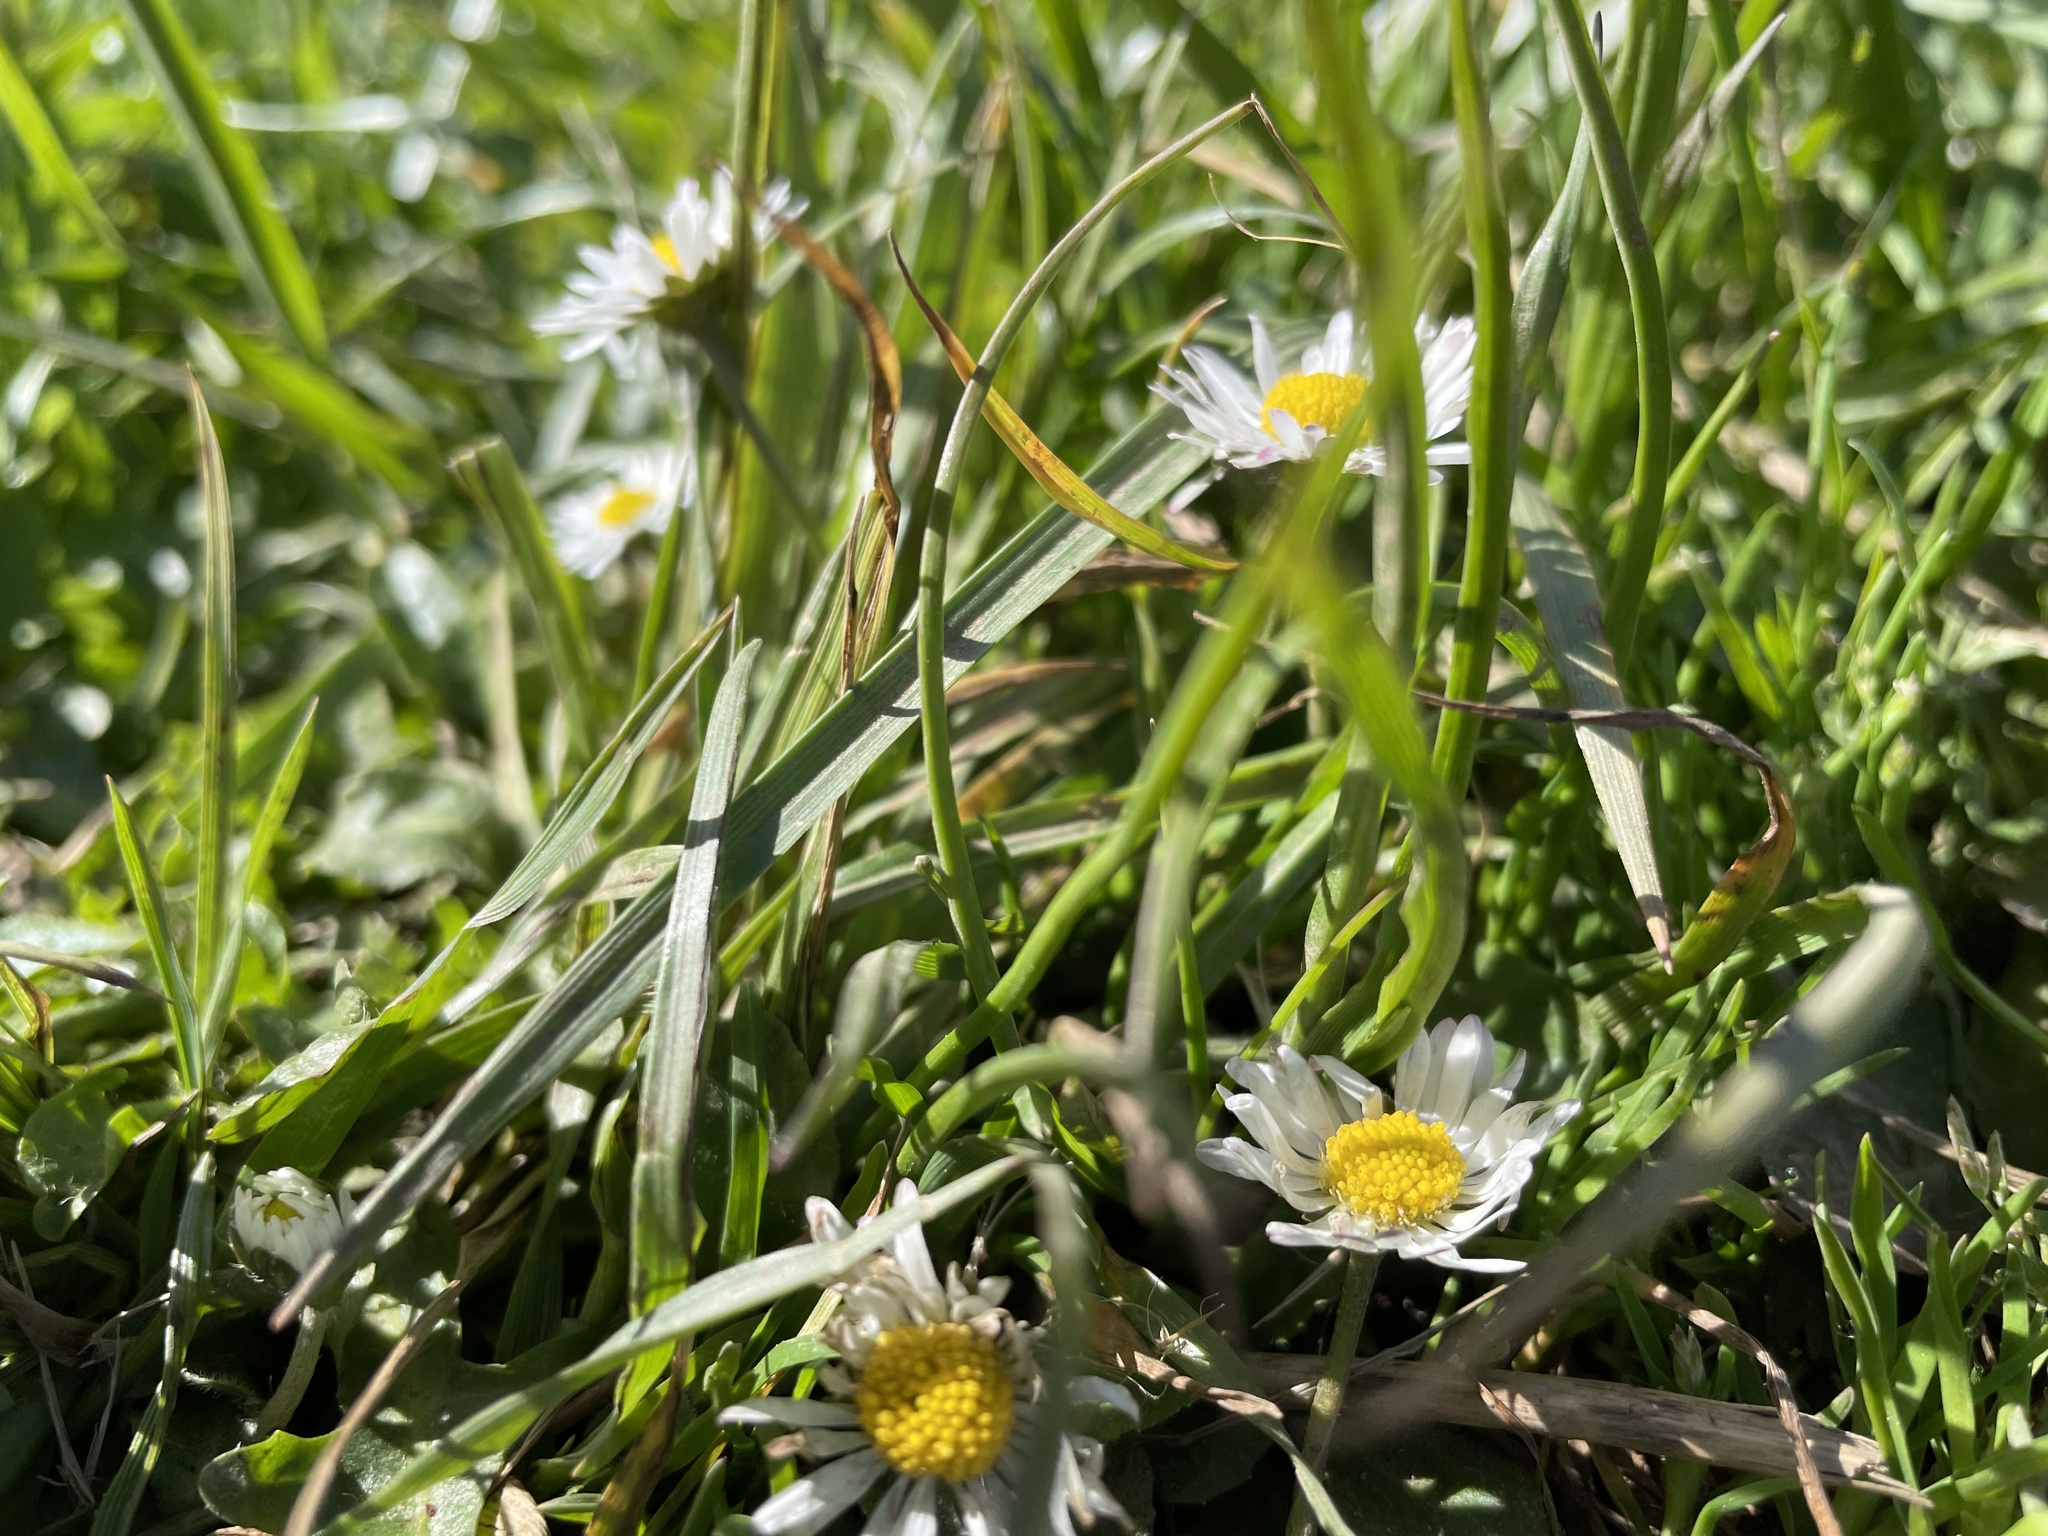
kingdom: Plantae
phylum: Tracheophyta
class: Magnoliopsida
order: Asterales
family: Asteraceae
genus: Bellis
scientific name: Bellis perennis
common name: Lawndaisy
